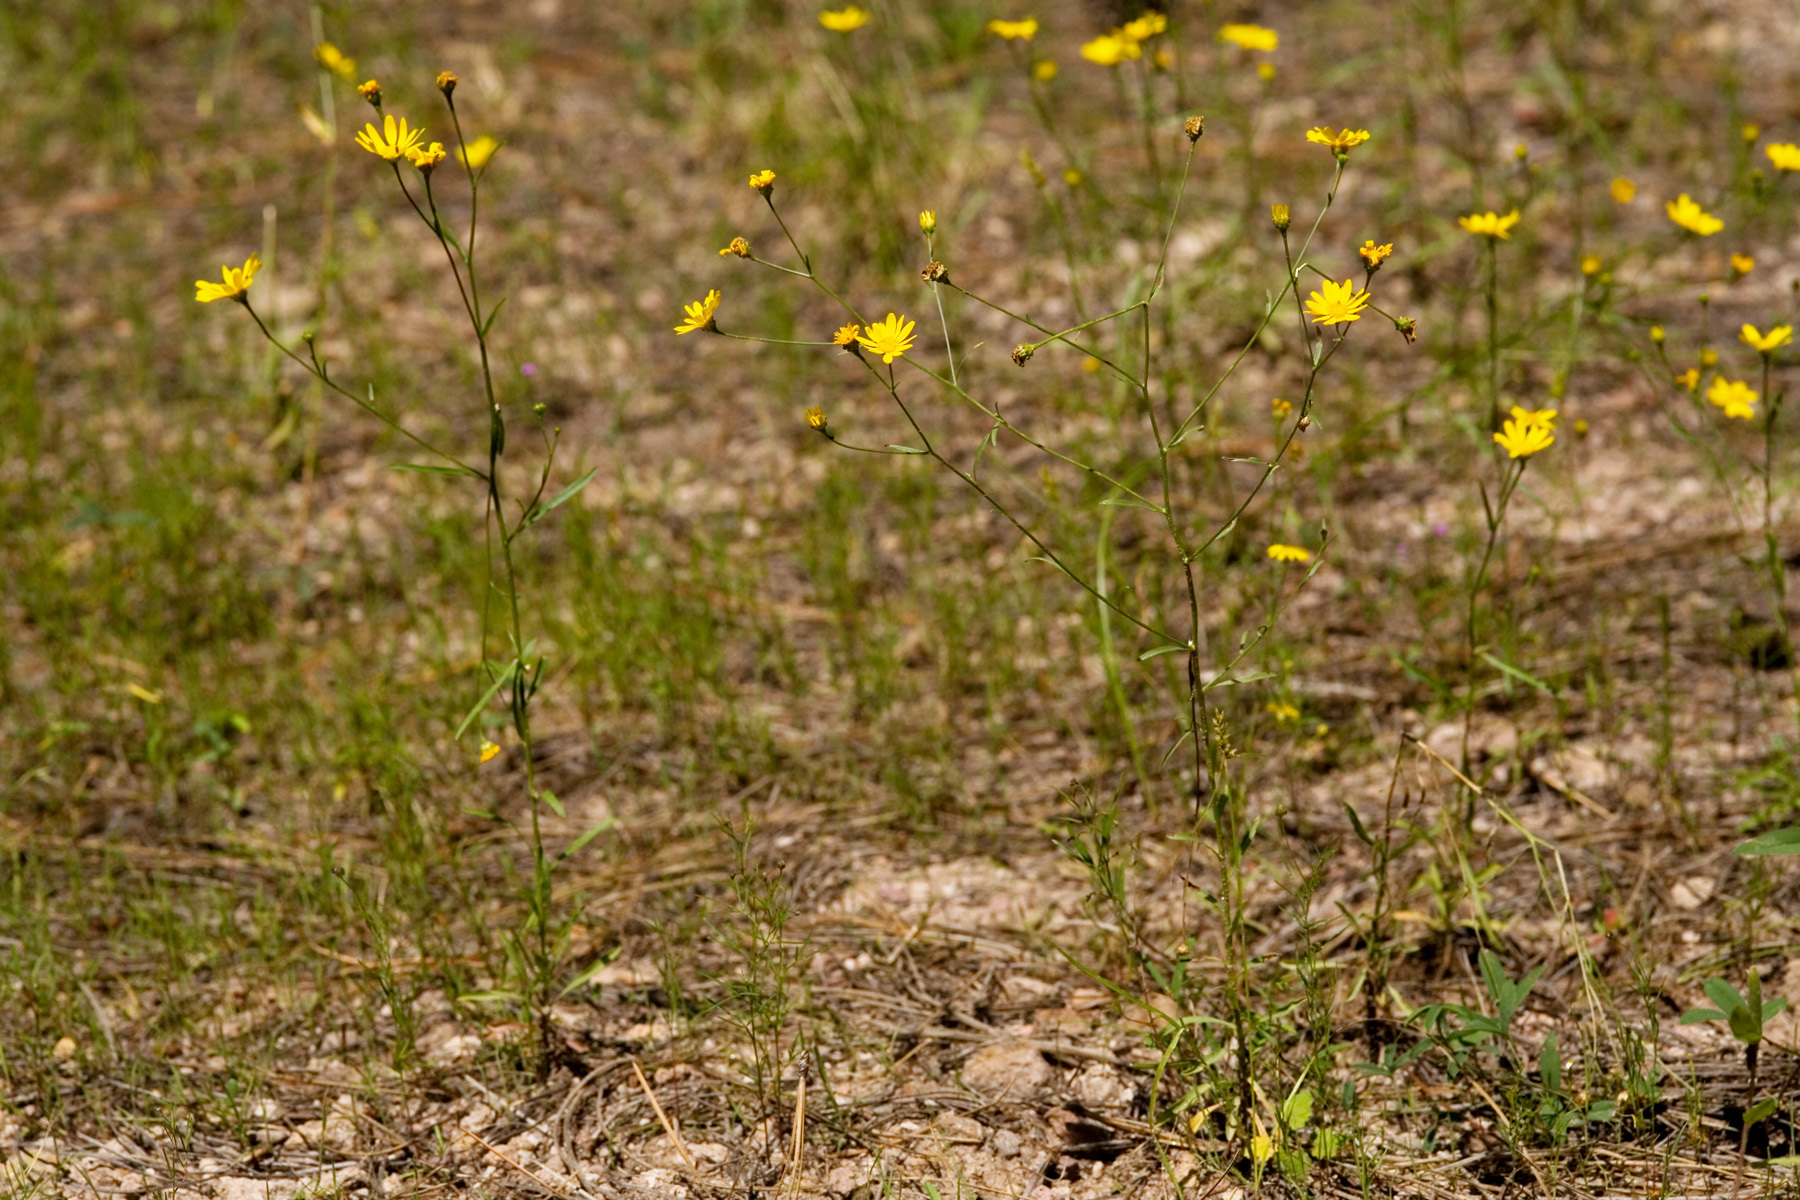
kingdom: Plantae
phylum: Tracheophyta
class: Magnoliopsida
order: Asterales
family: Asteraceae
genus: Gutierrezia
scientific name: Gutierrezia wrightii
